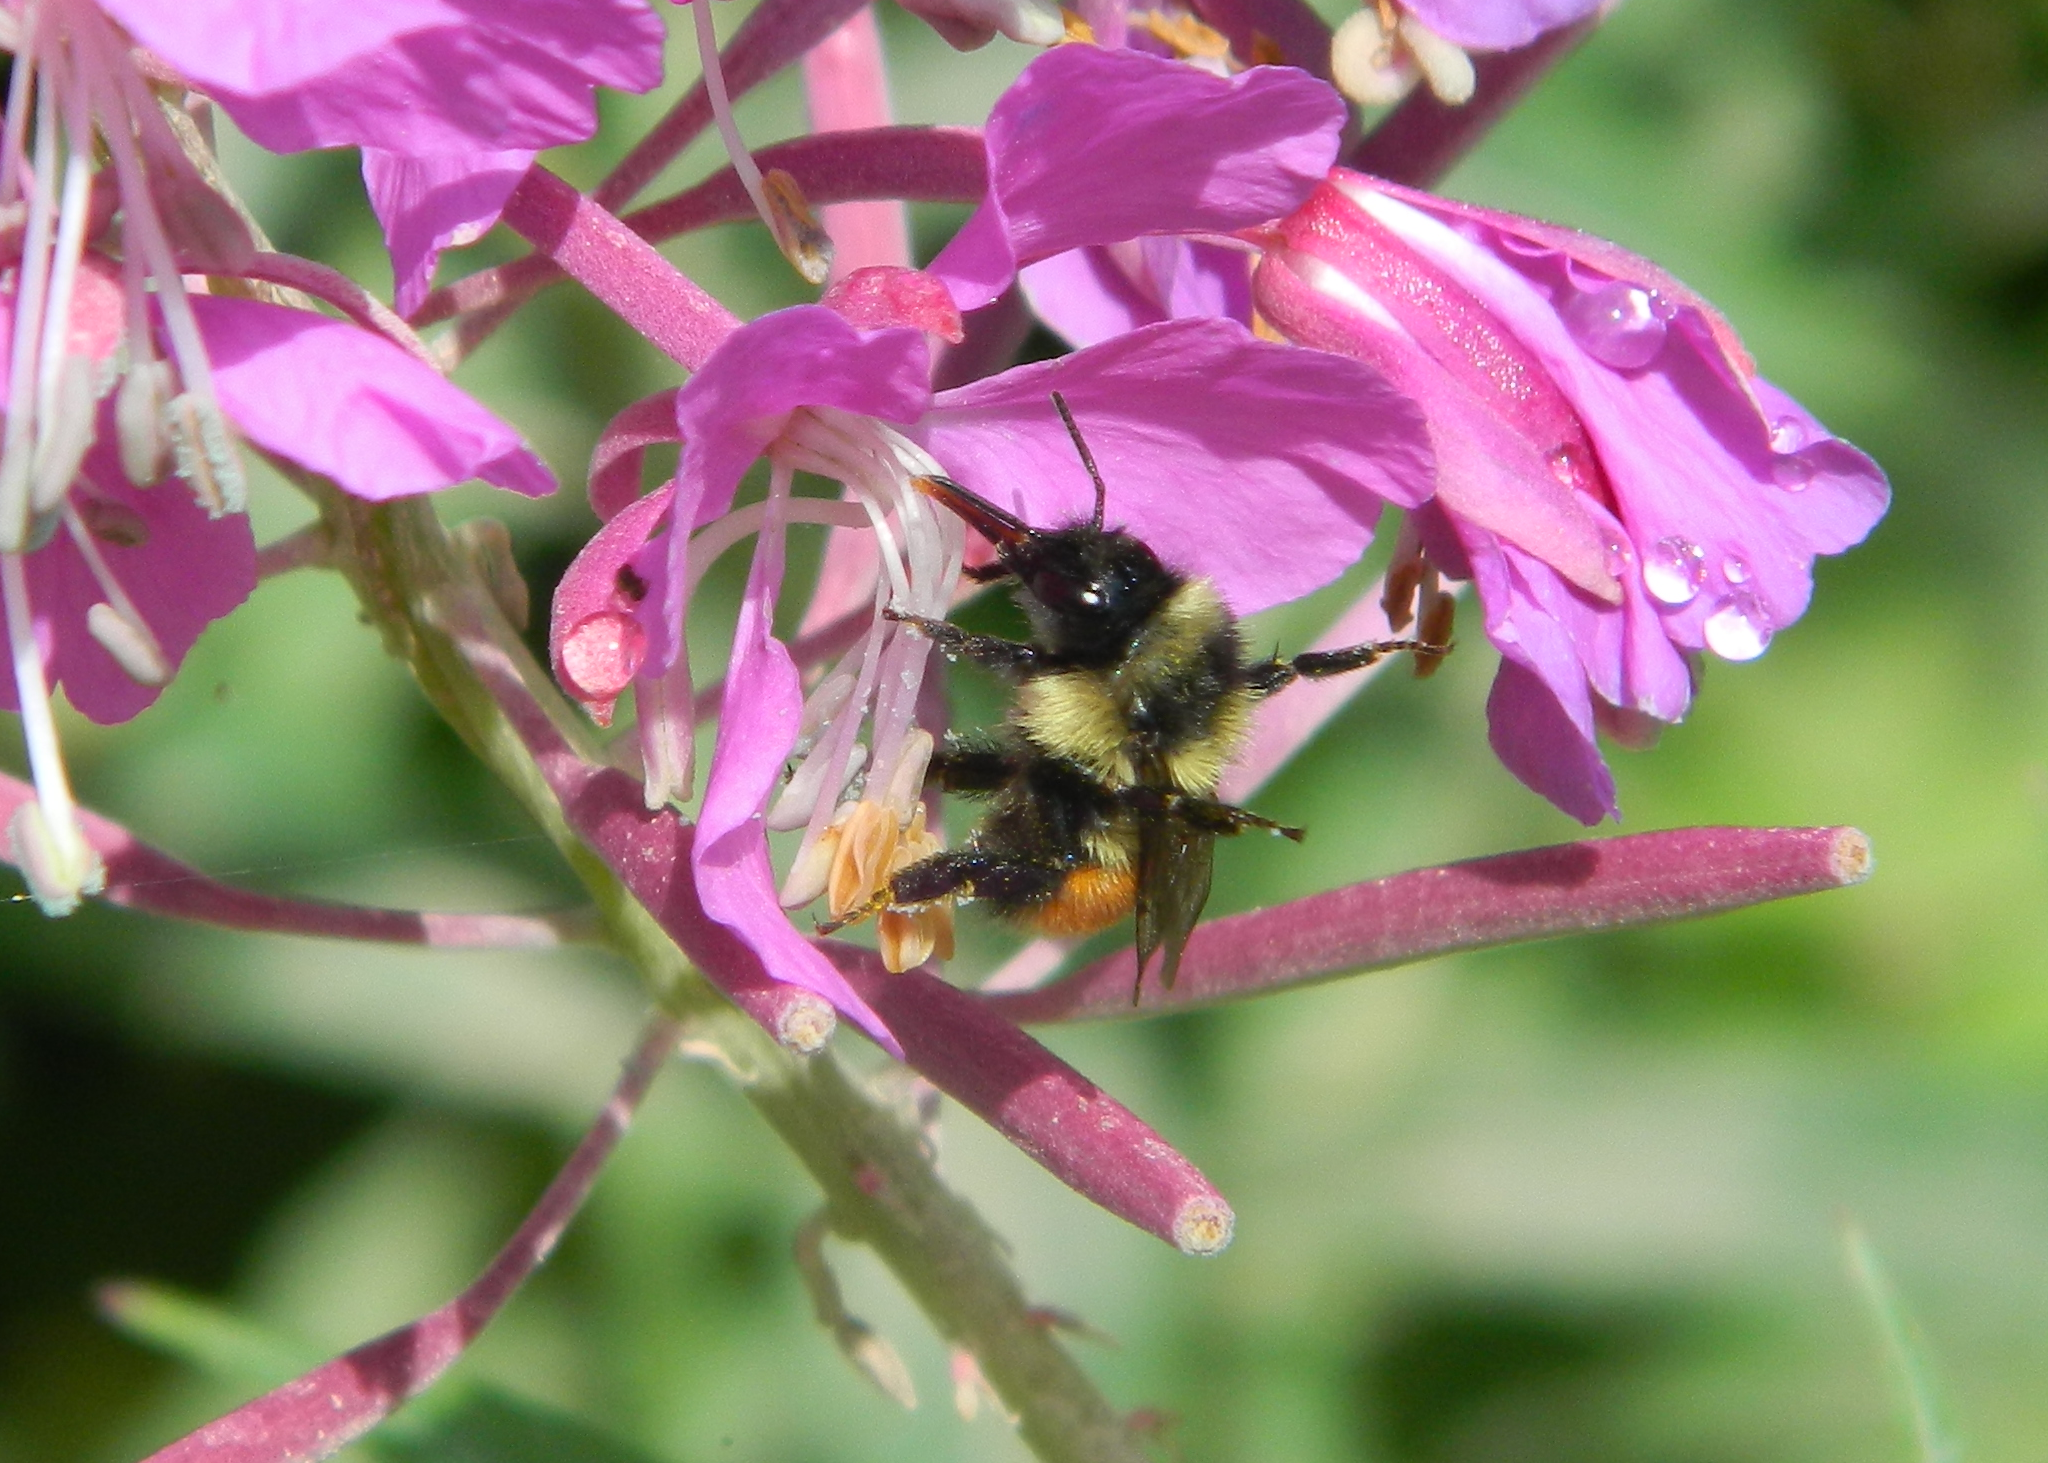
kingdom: Animalia
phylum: Arthropoda
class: Insecta
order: Hymenoptera
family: Apidae
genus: Bombus
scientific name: Bombus ternarius
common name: Tri-colored bumble bee
